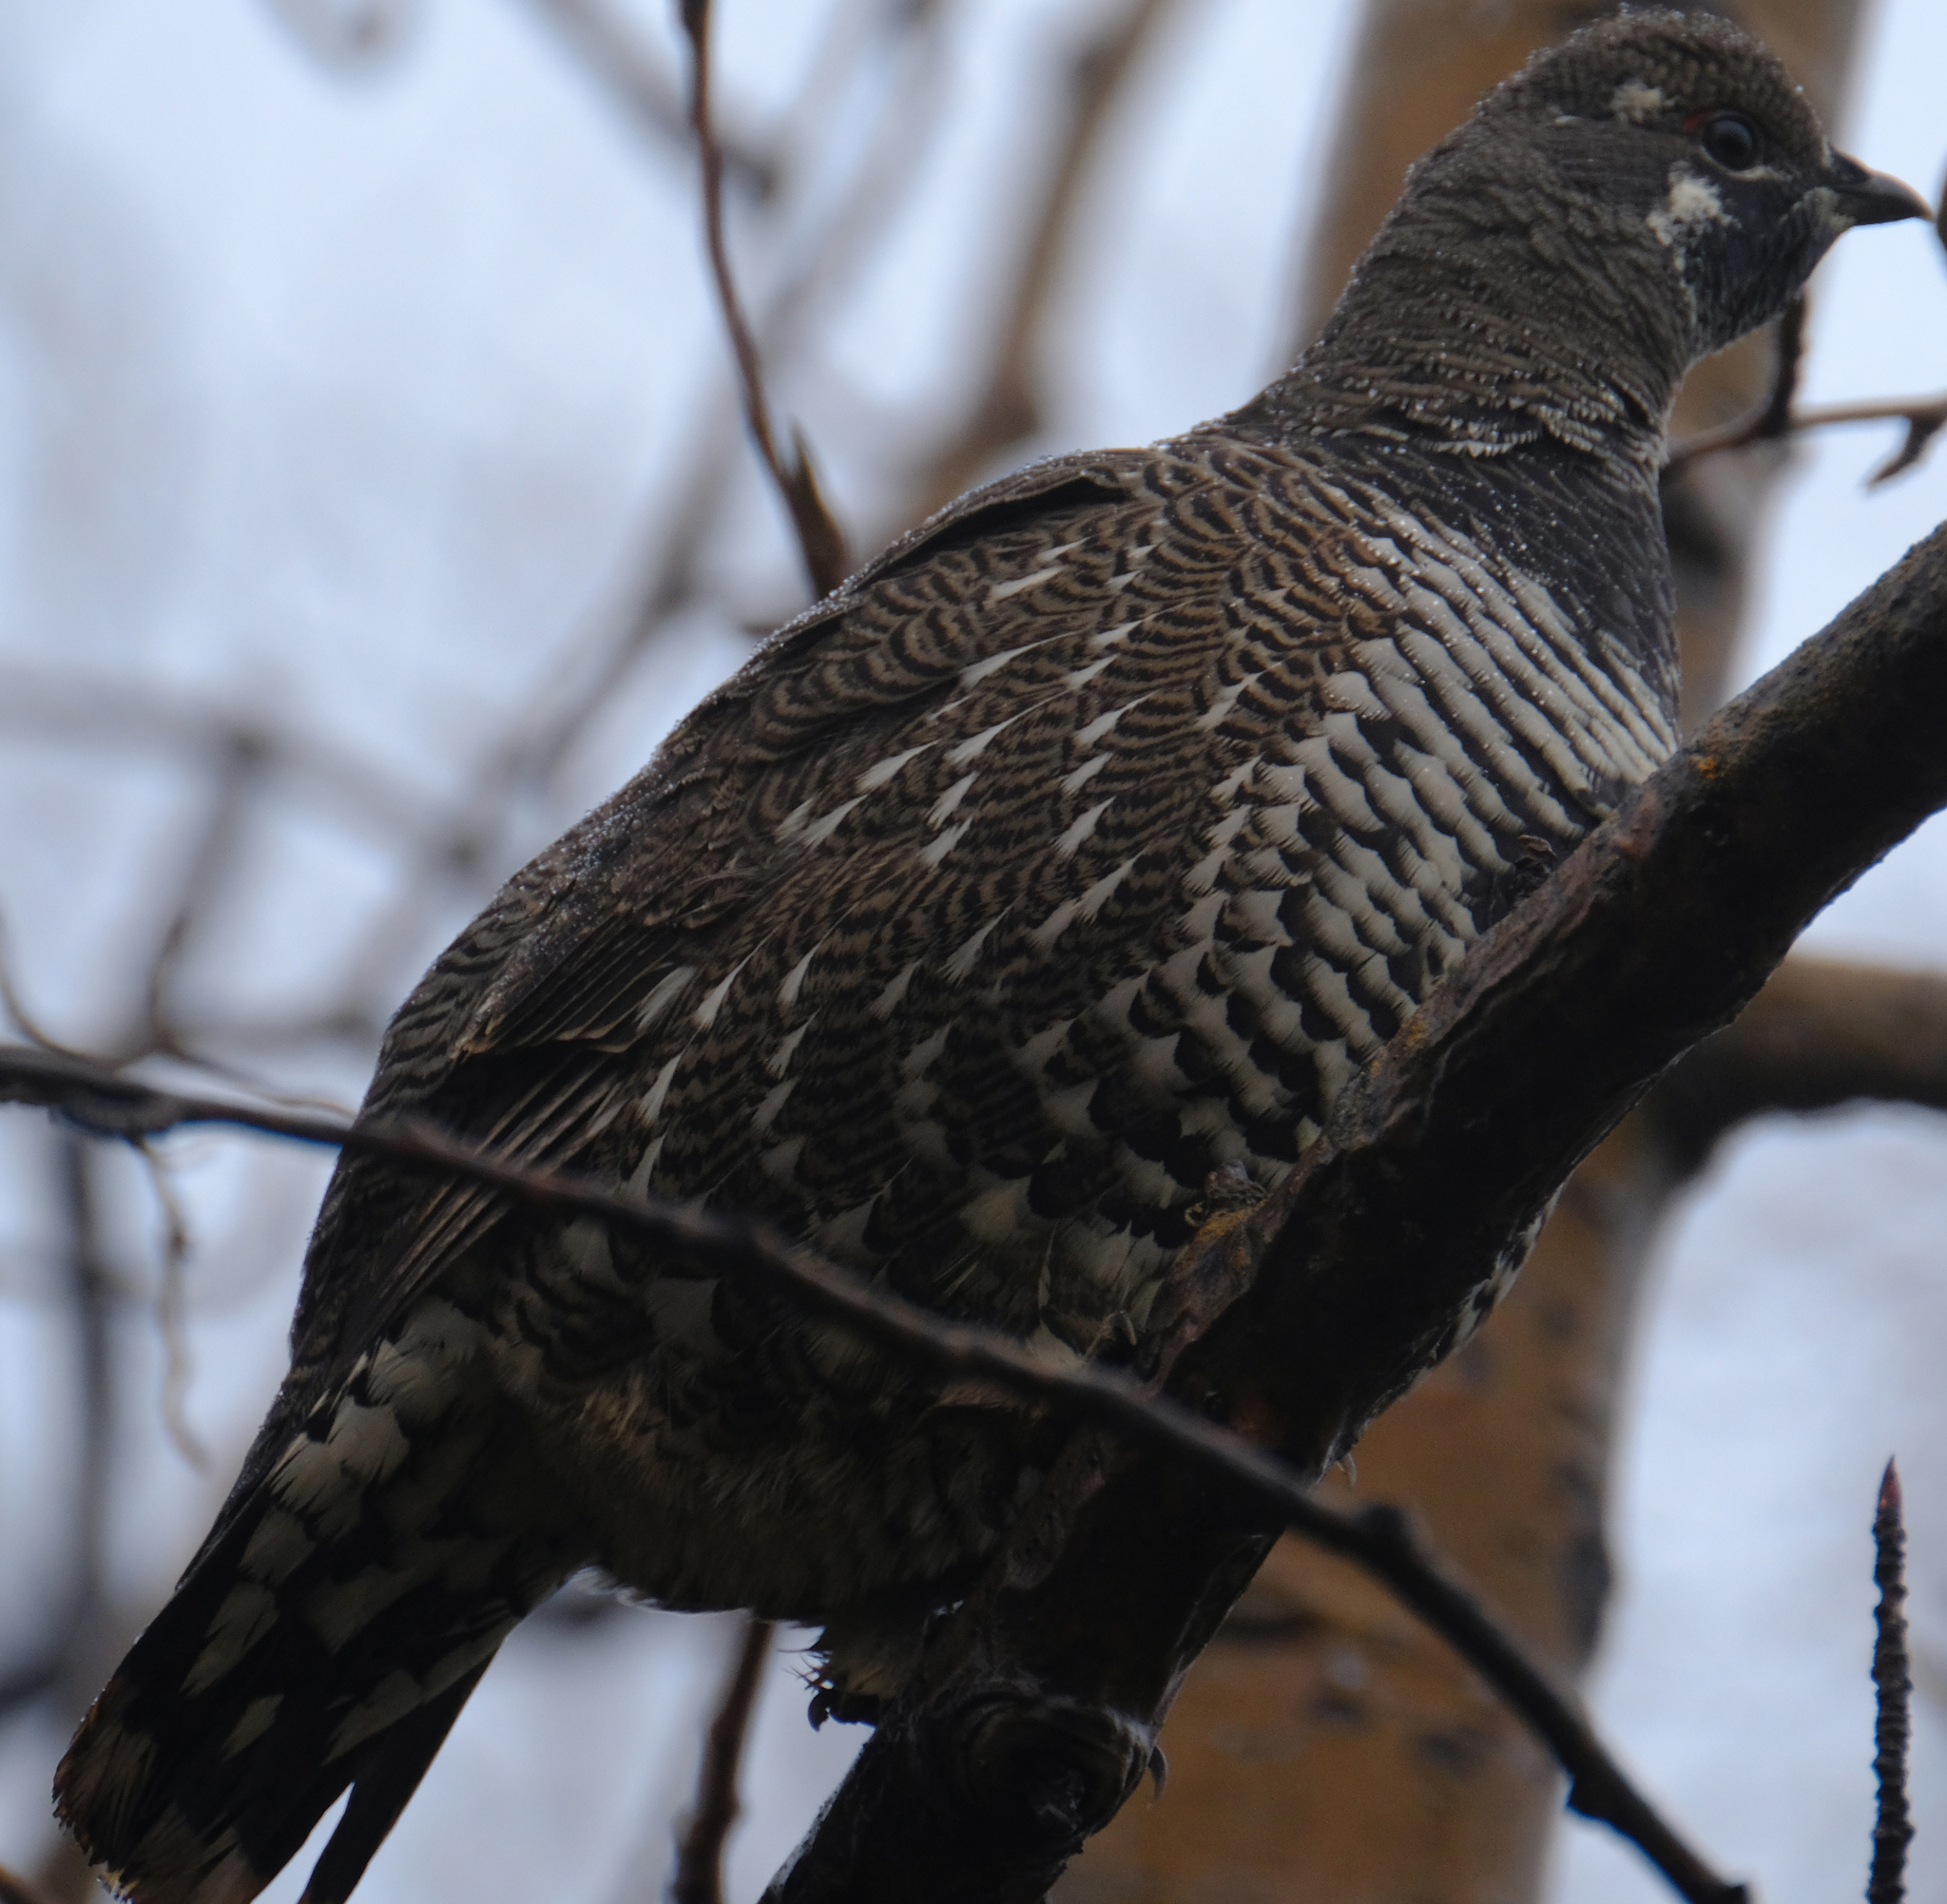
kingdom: Animalia
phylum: Chordata
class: Aves
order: Galliformes
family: Phasianidae
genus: Canachites
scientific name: Canachites canadensis
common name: Spruce grouse
